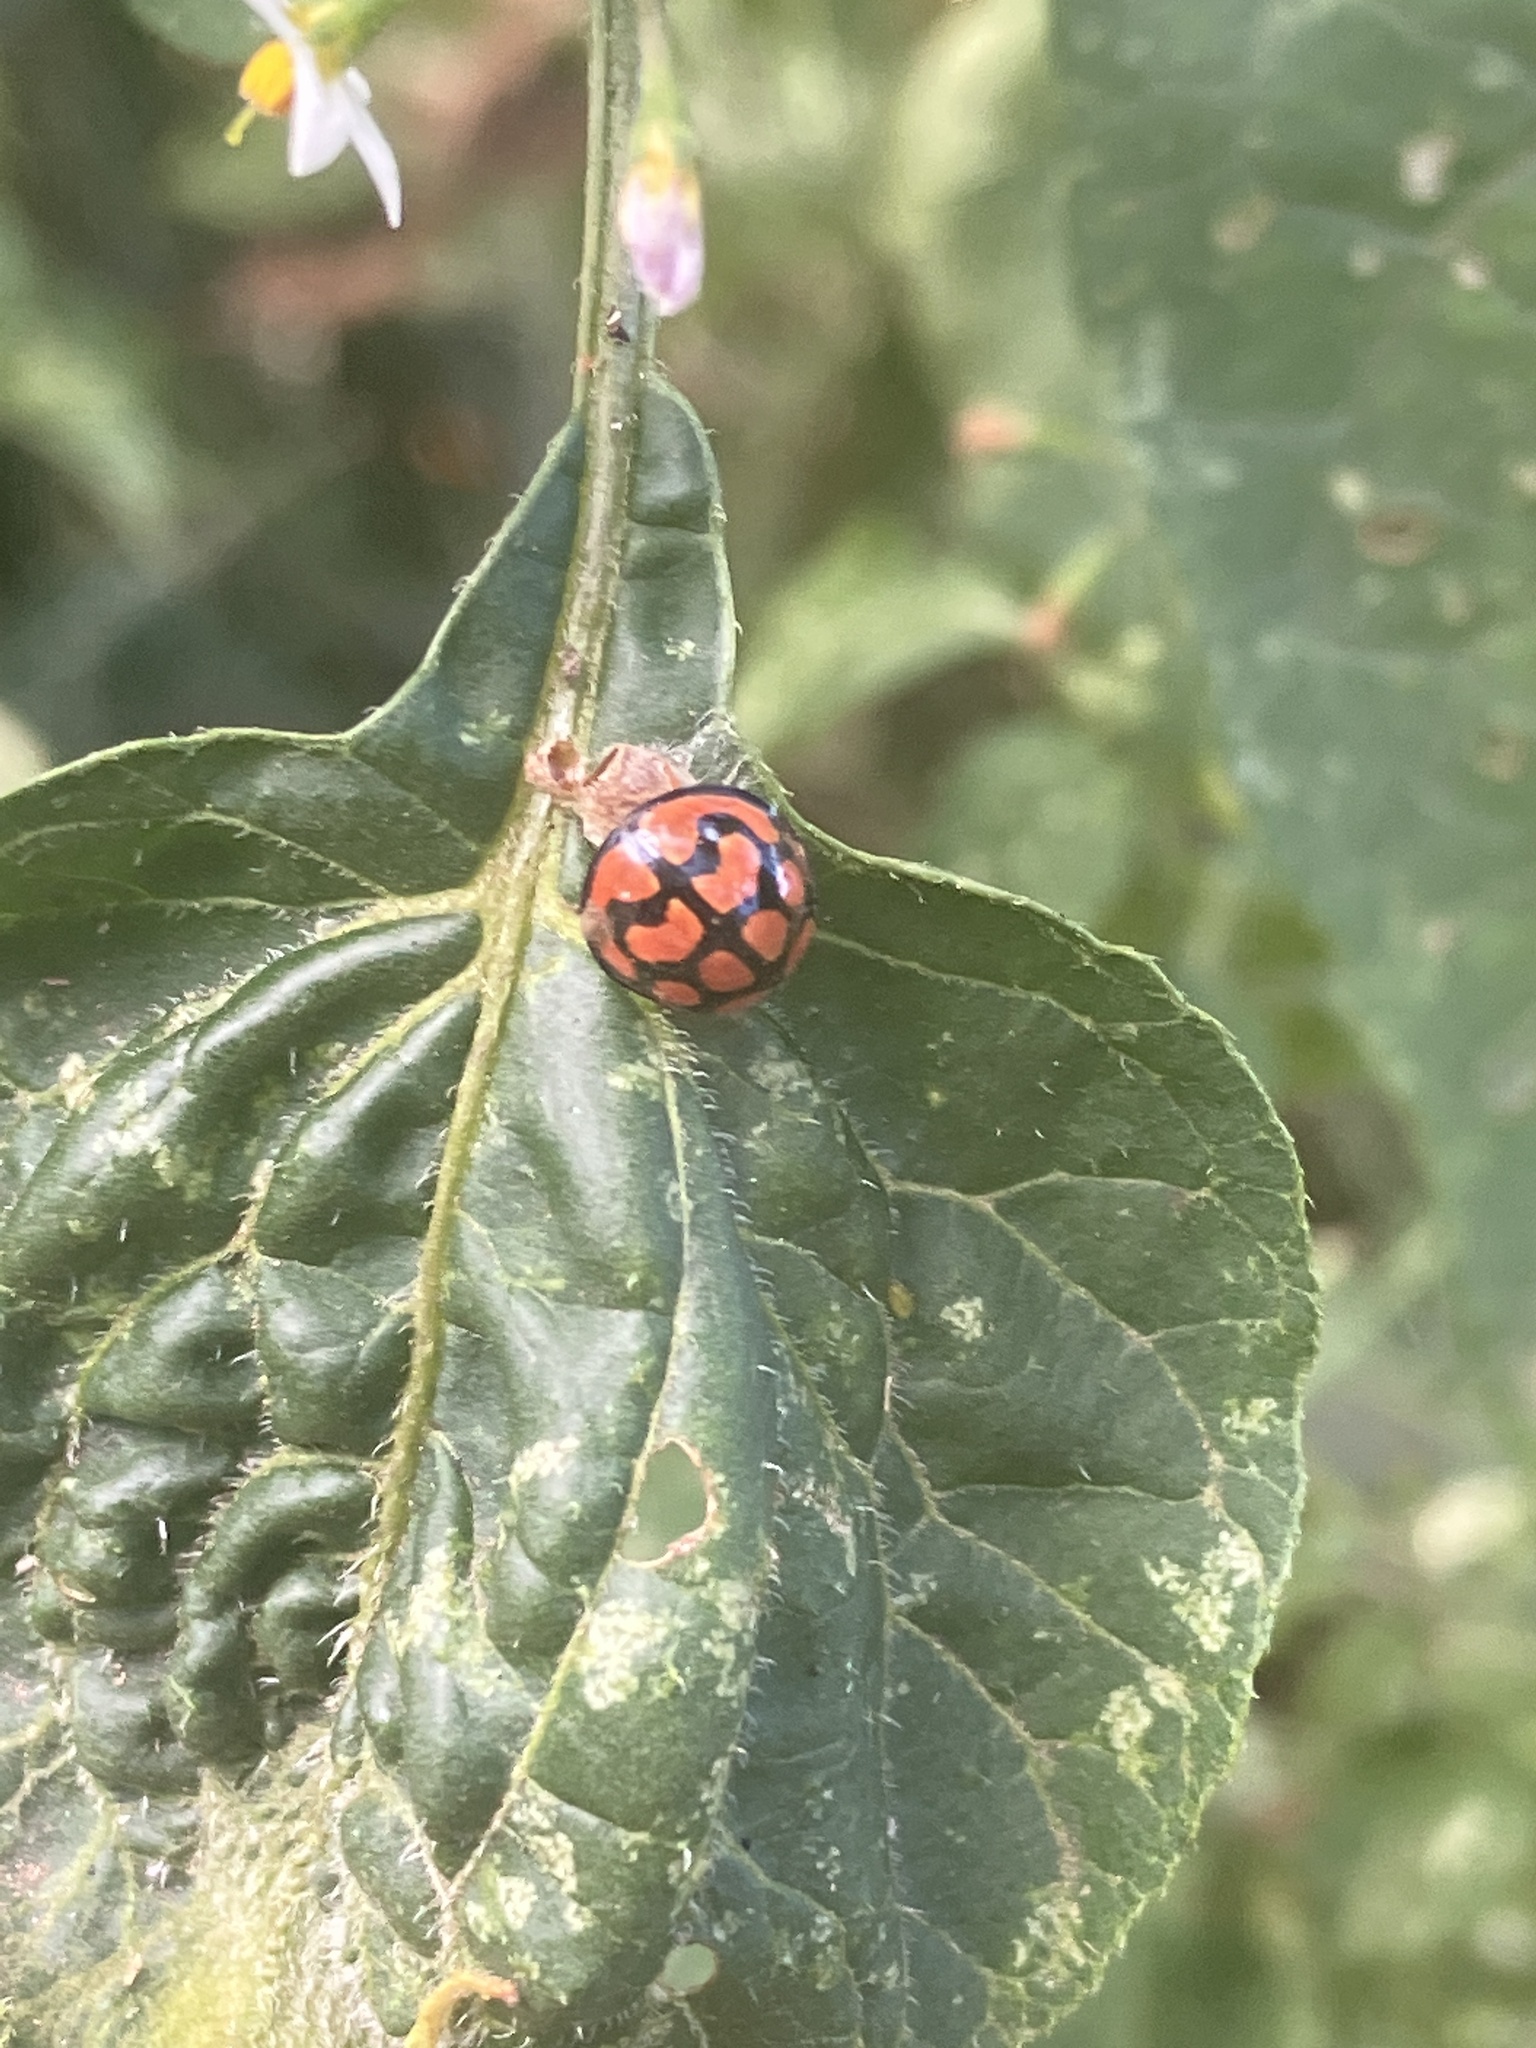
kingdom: Animalia
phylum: Arthropoda
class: Insecta
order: Coleoptera
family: Coccinellidae
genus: Cheilomenes
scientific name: Cheilomenes lunata
